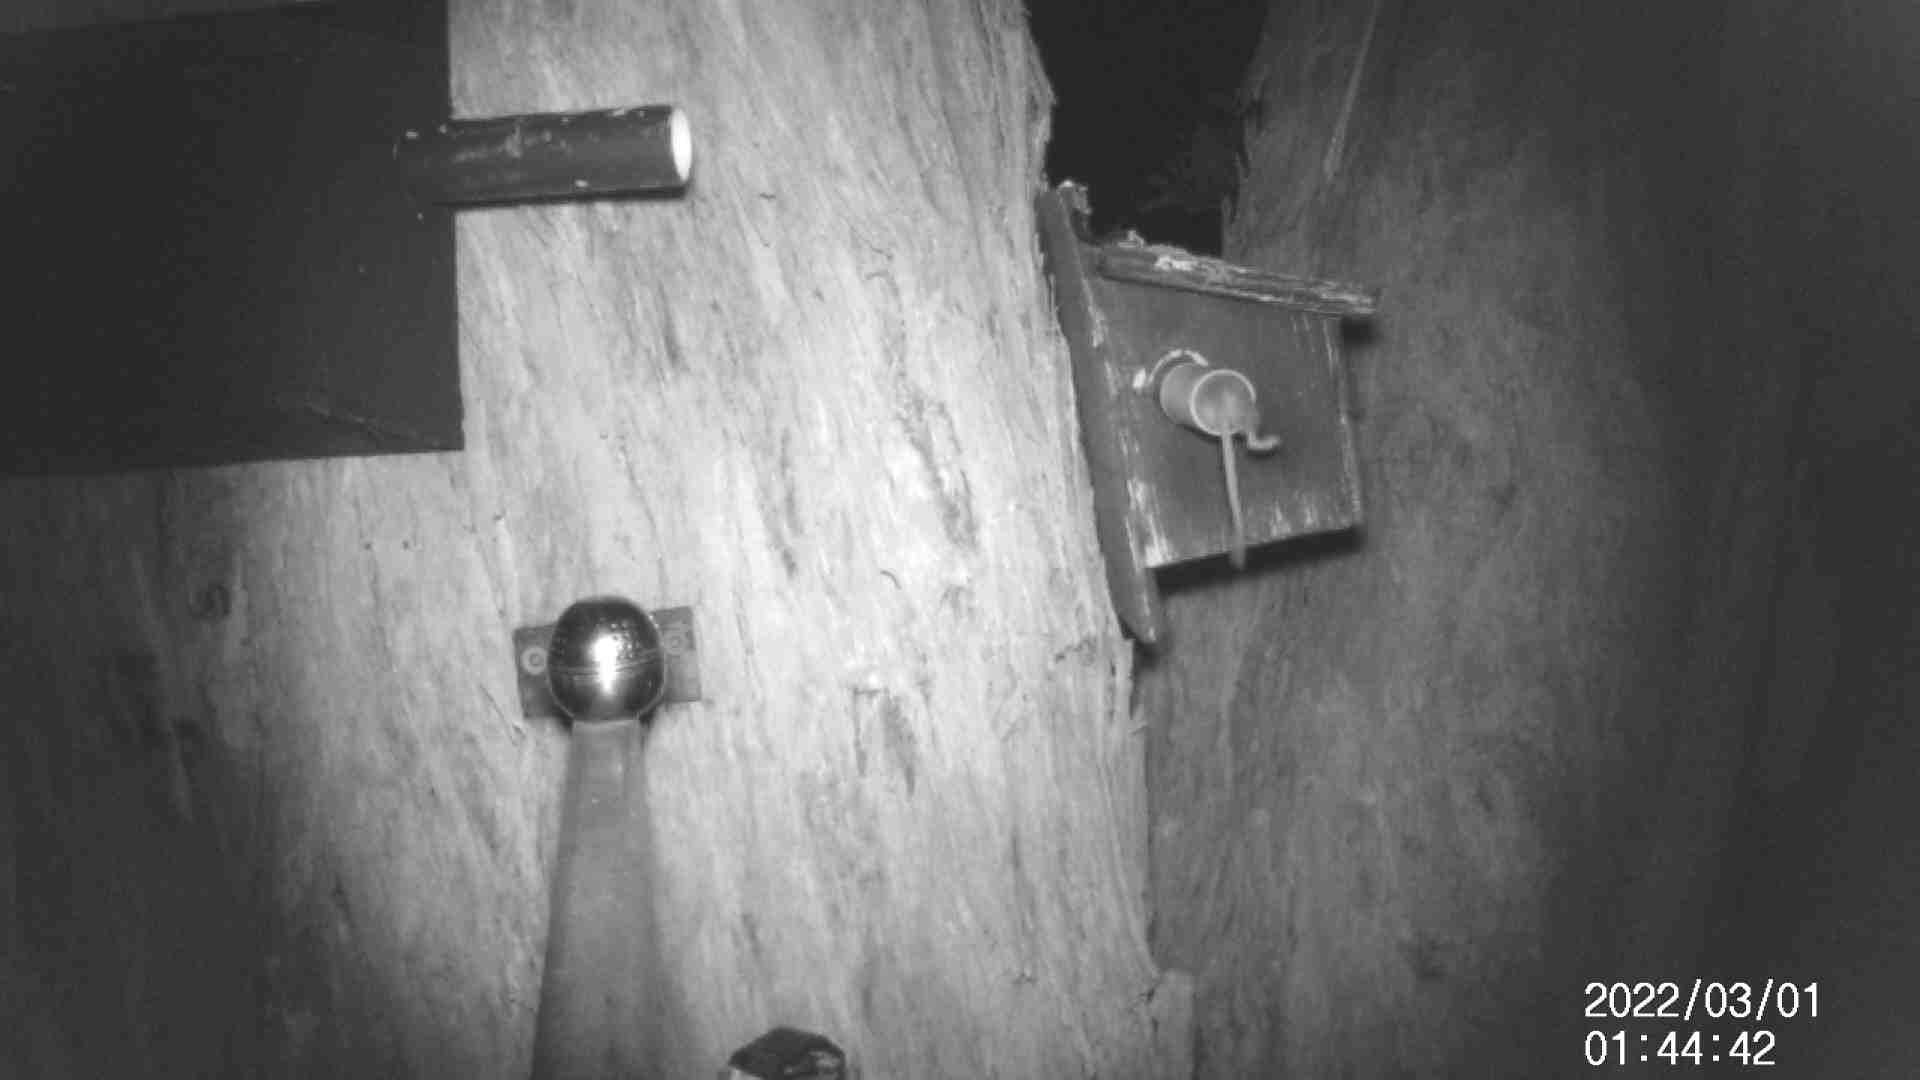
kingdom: Animalia
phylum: Chordata
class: Mammalia
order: Dasyuromorphia
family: Dasyuridae
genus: Antechinus
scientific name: Antechinus agilis
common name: Agile antechinus
